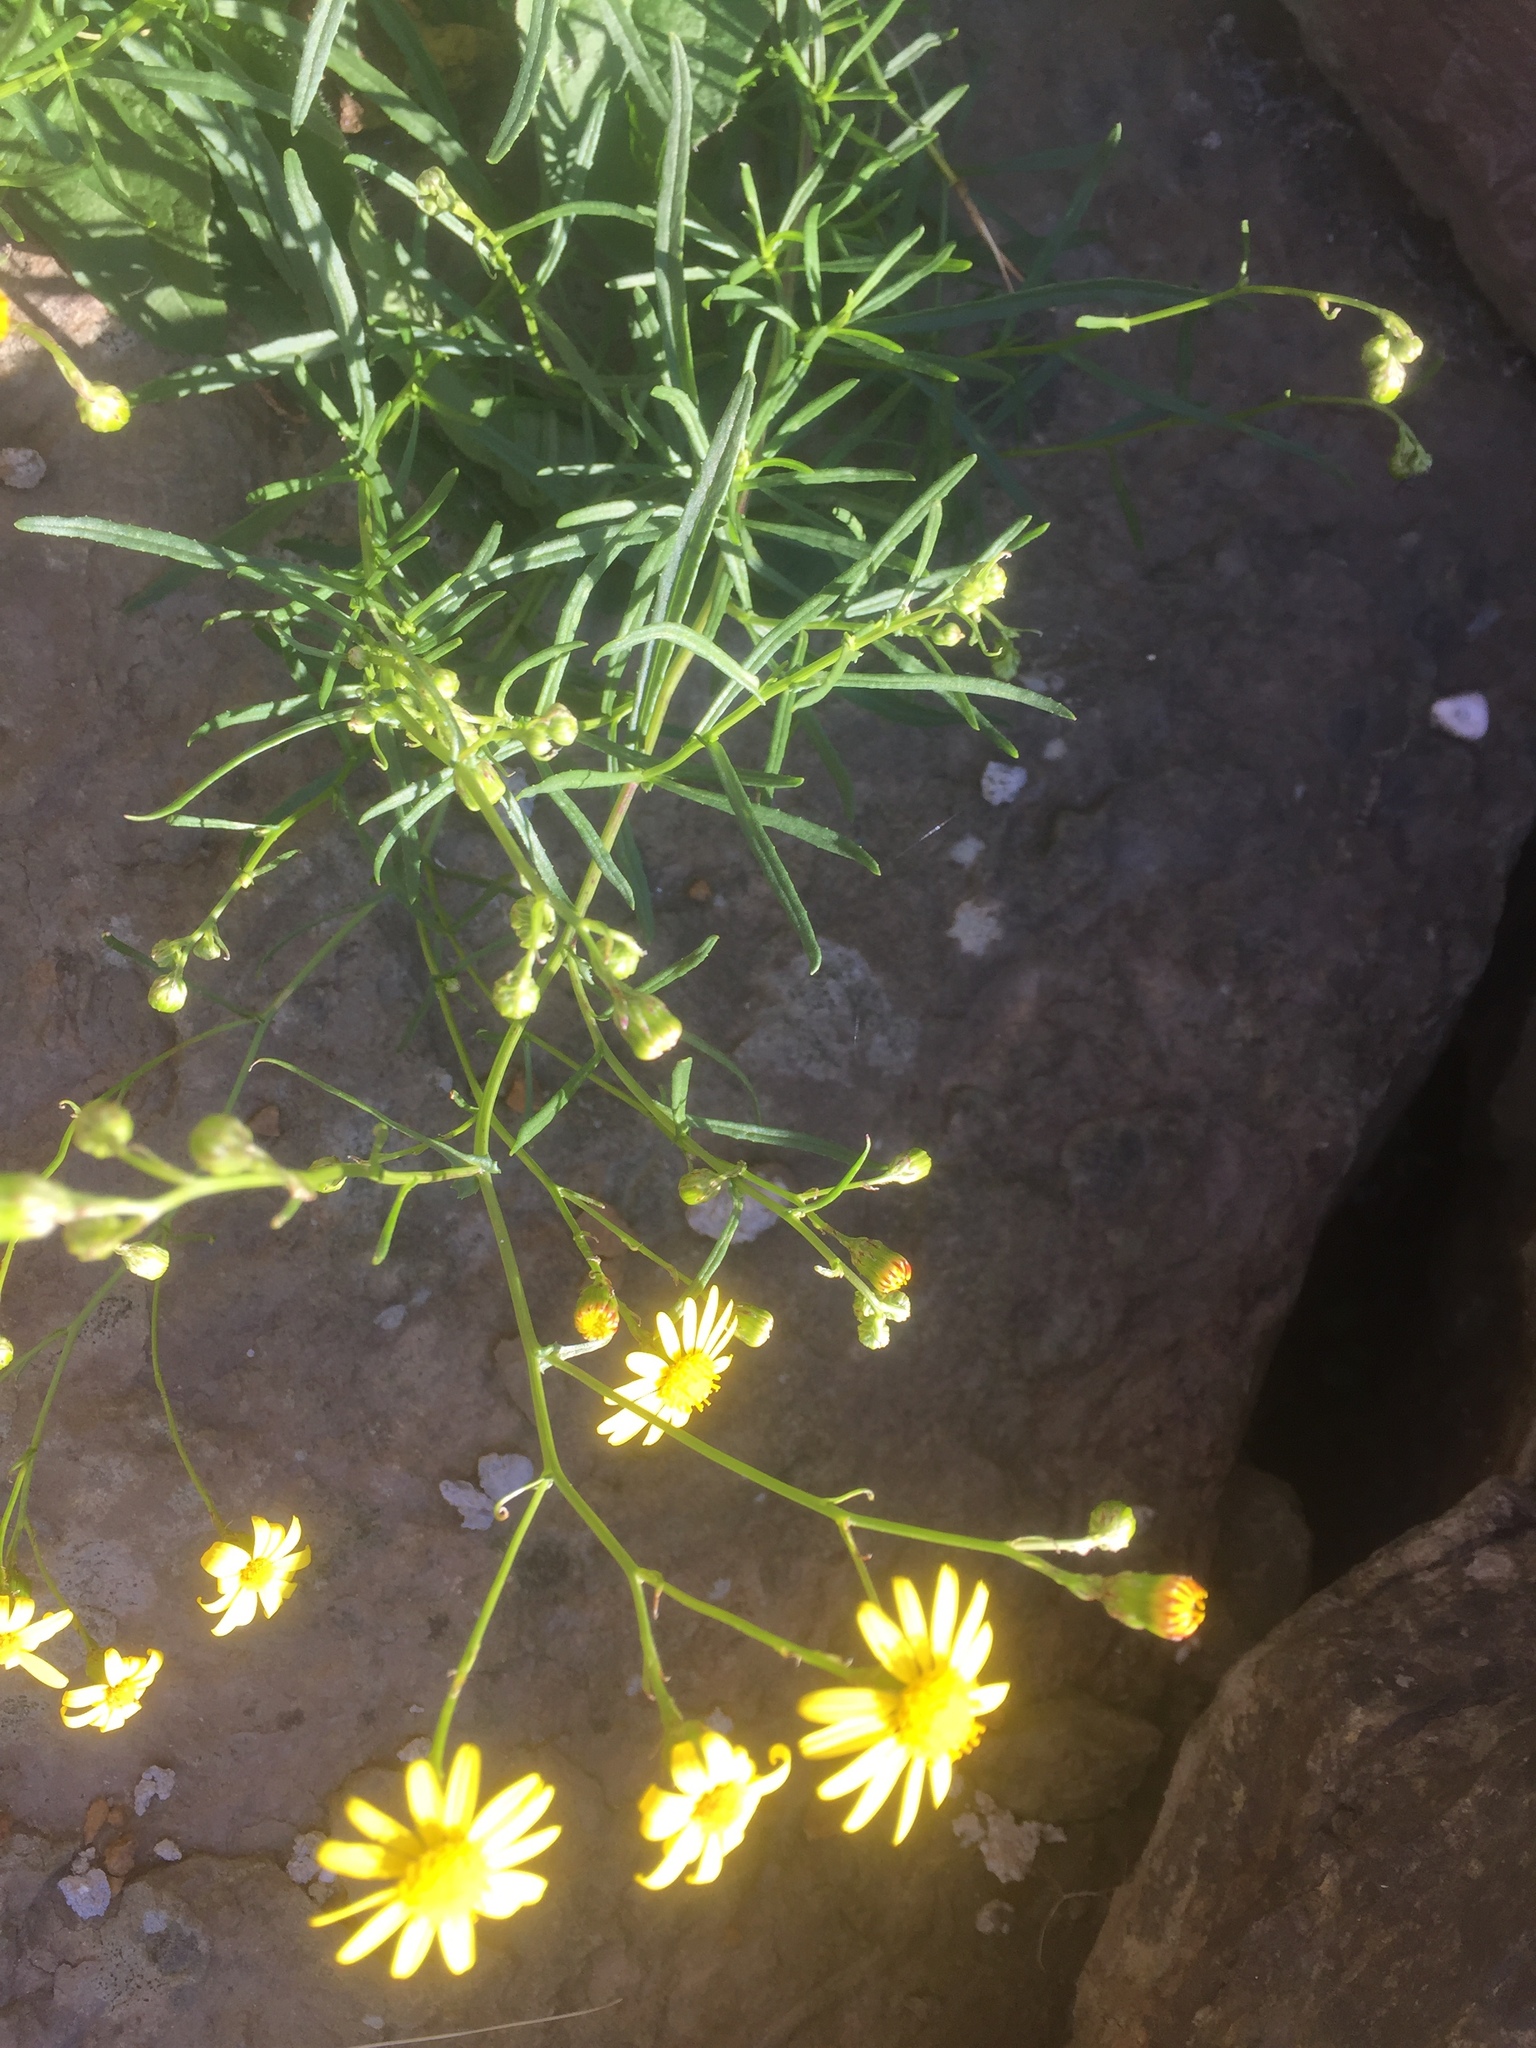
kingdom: Plantae
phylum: Tracheophyta
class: Magnoliopsida
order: Asterales
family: Asteraceae
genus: Senecio
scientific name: Senecio inaequidens
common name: Narrow-leaved ragwort
